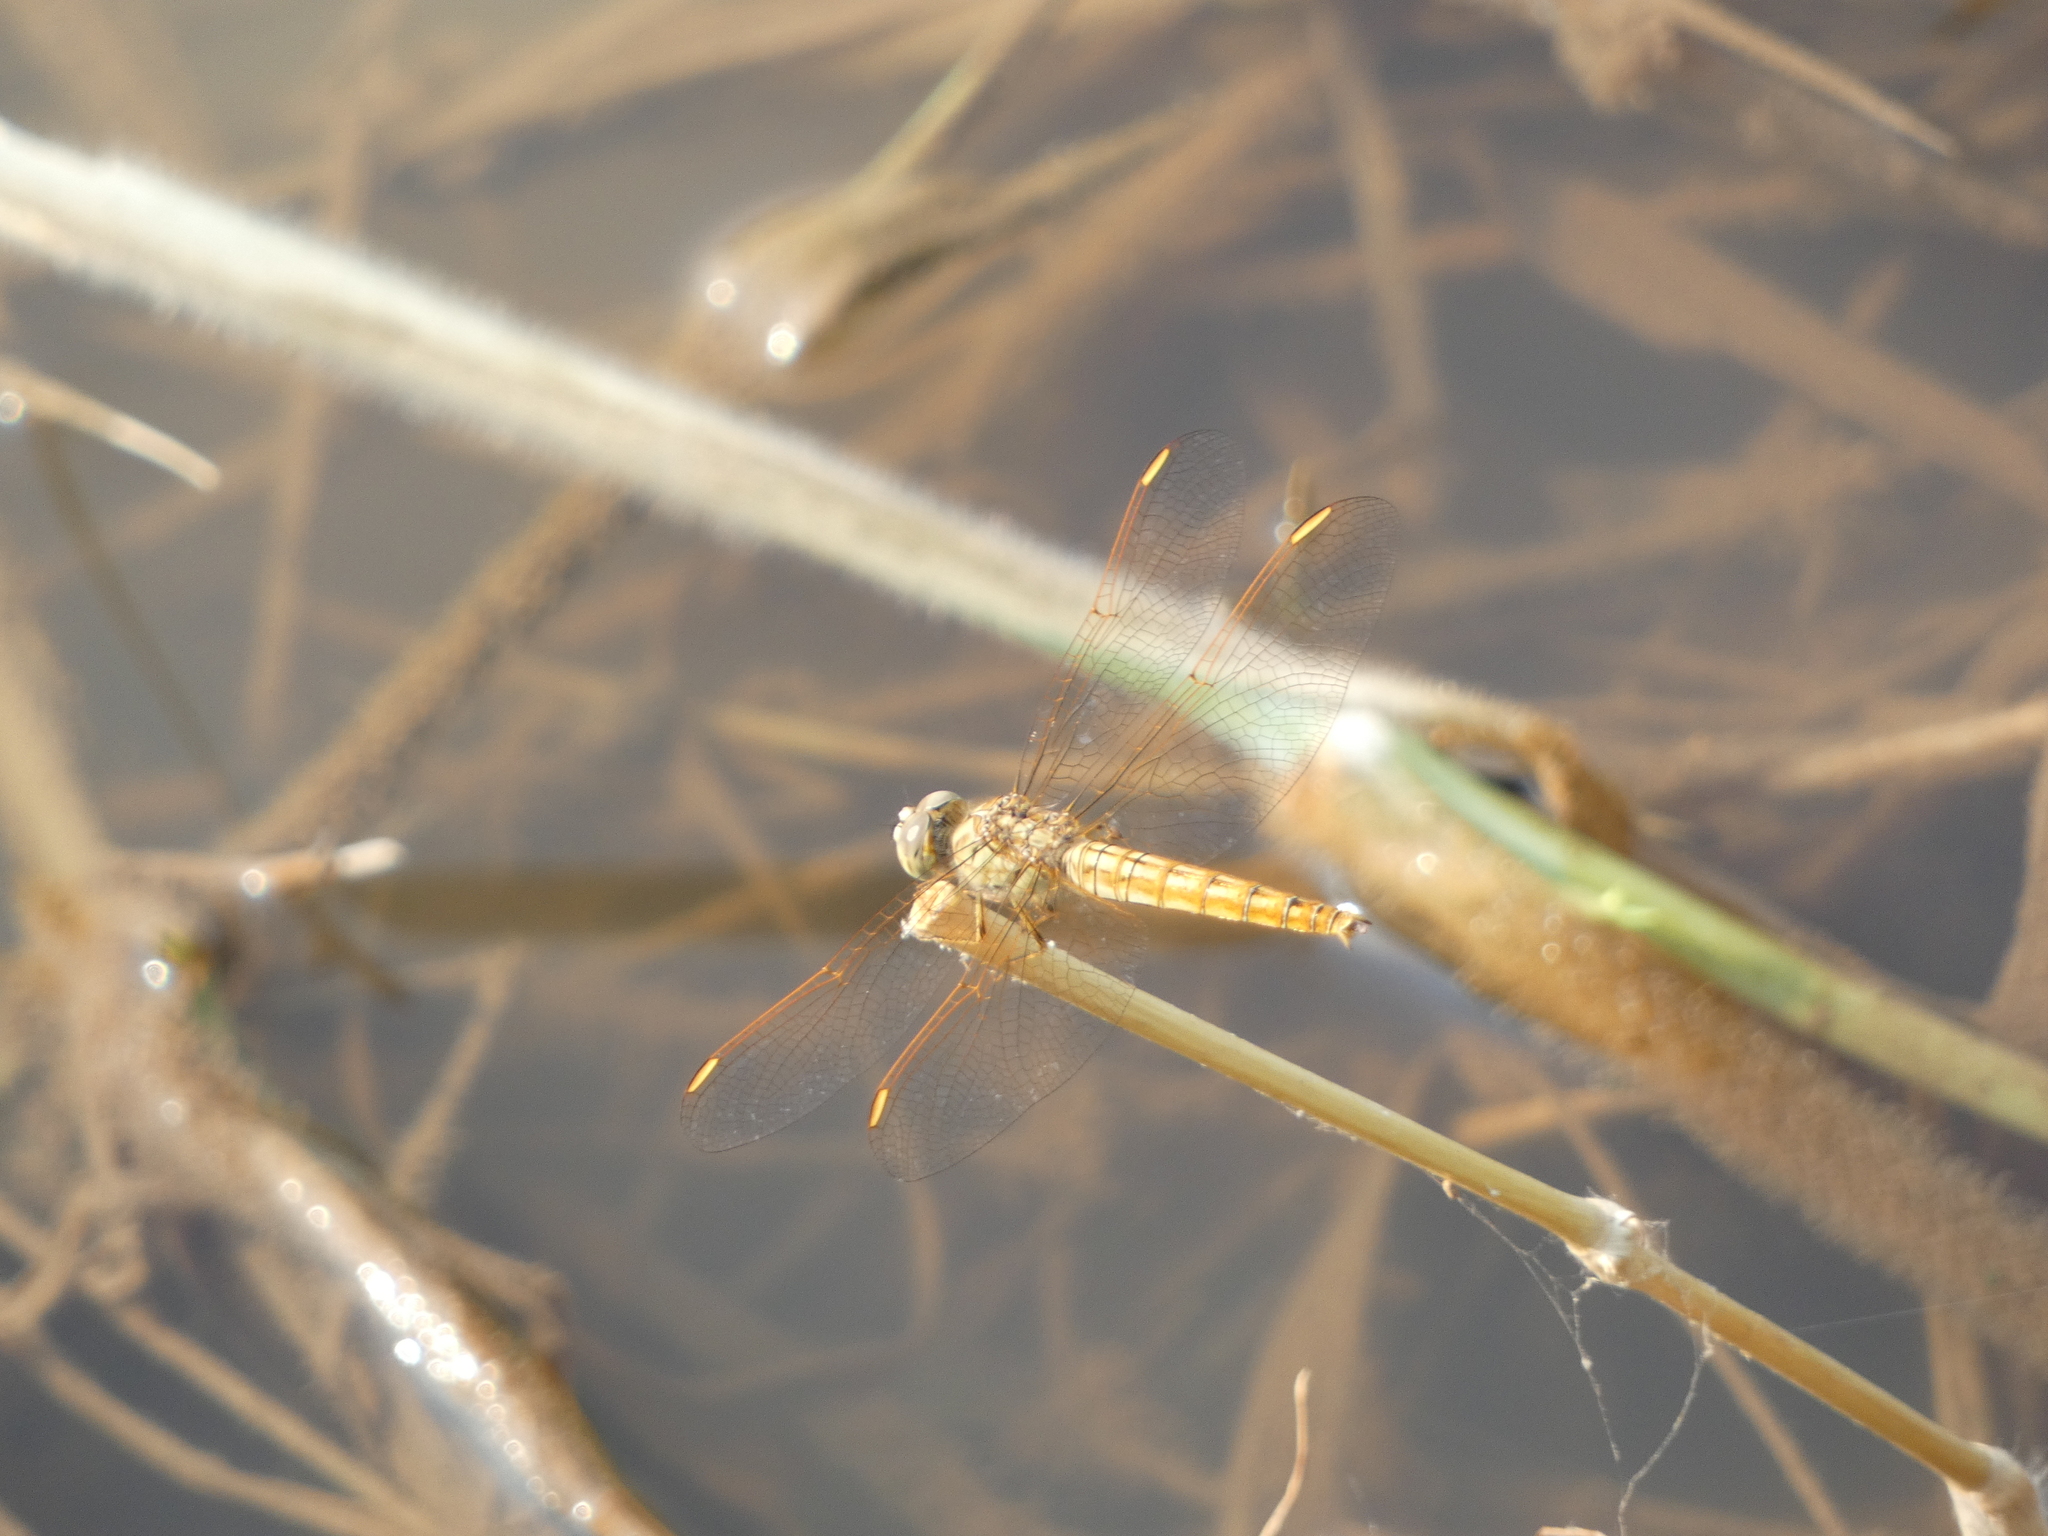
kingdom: Animalia
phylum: Arthropoda
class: Insecta
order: Odonata
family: Libellulidae
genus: Brachythemis
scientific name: Brachythemis contaminata
